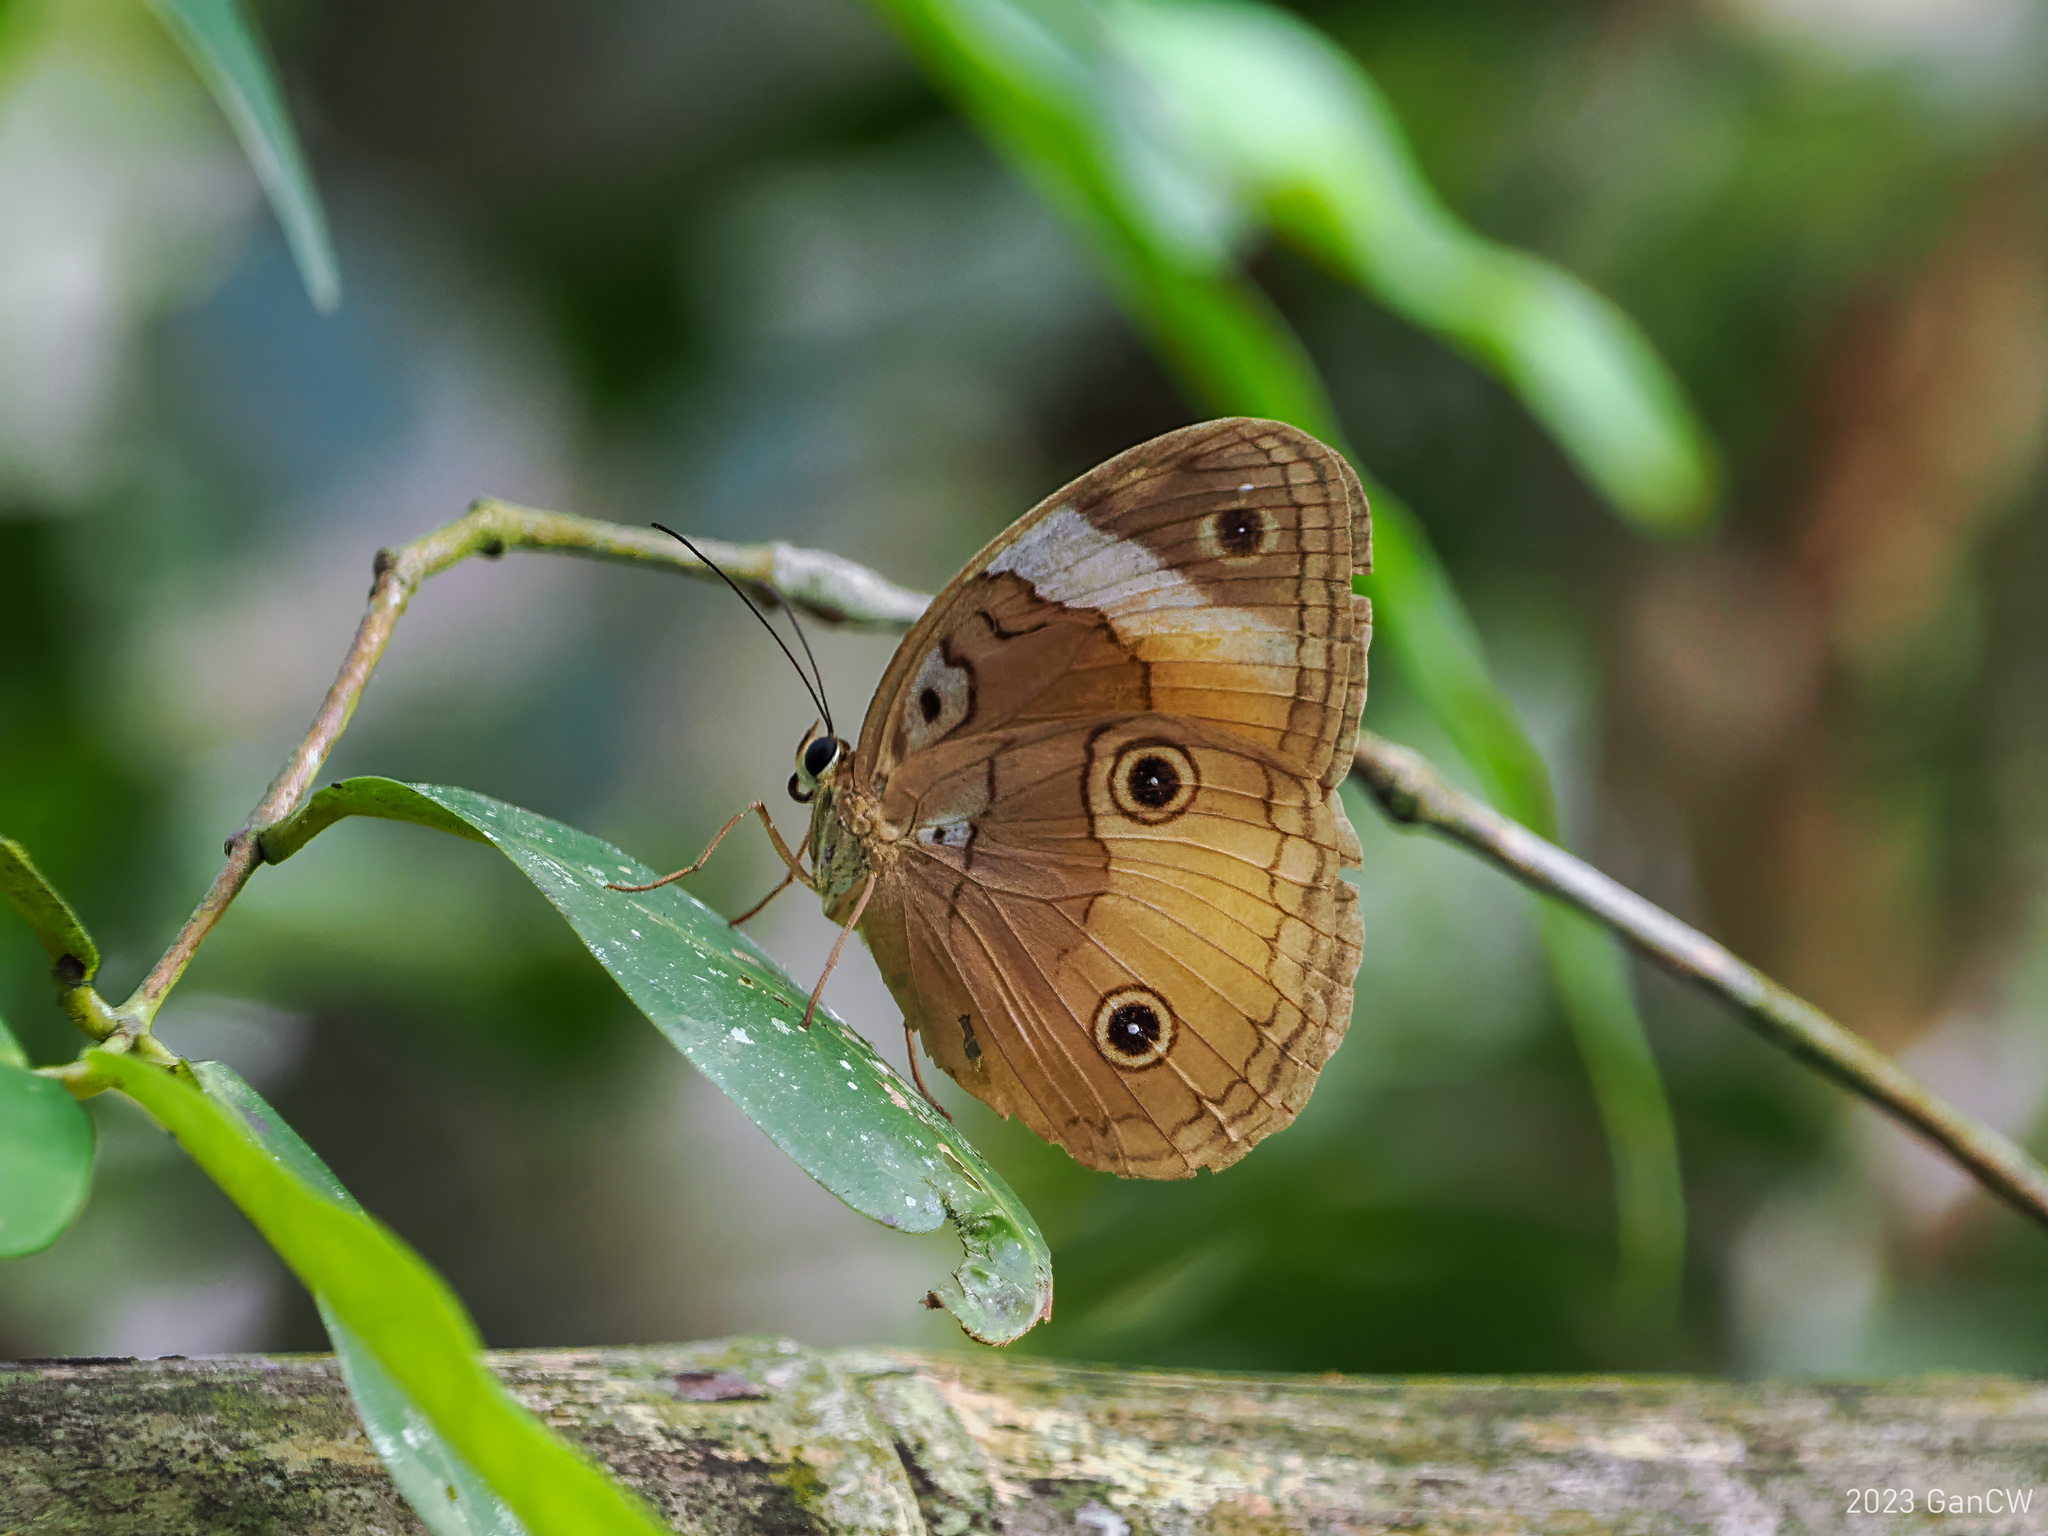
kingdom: Animalia
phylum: Arthropoda
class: Insecta
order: Lepidoptera
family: Nymphalidae
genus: Faunis
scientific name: Faunis menado
